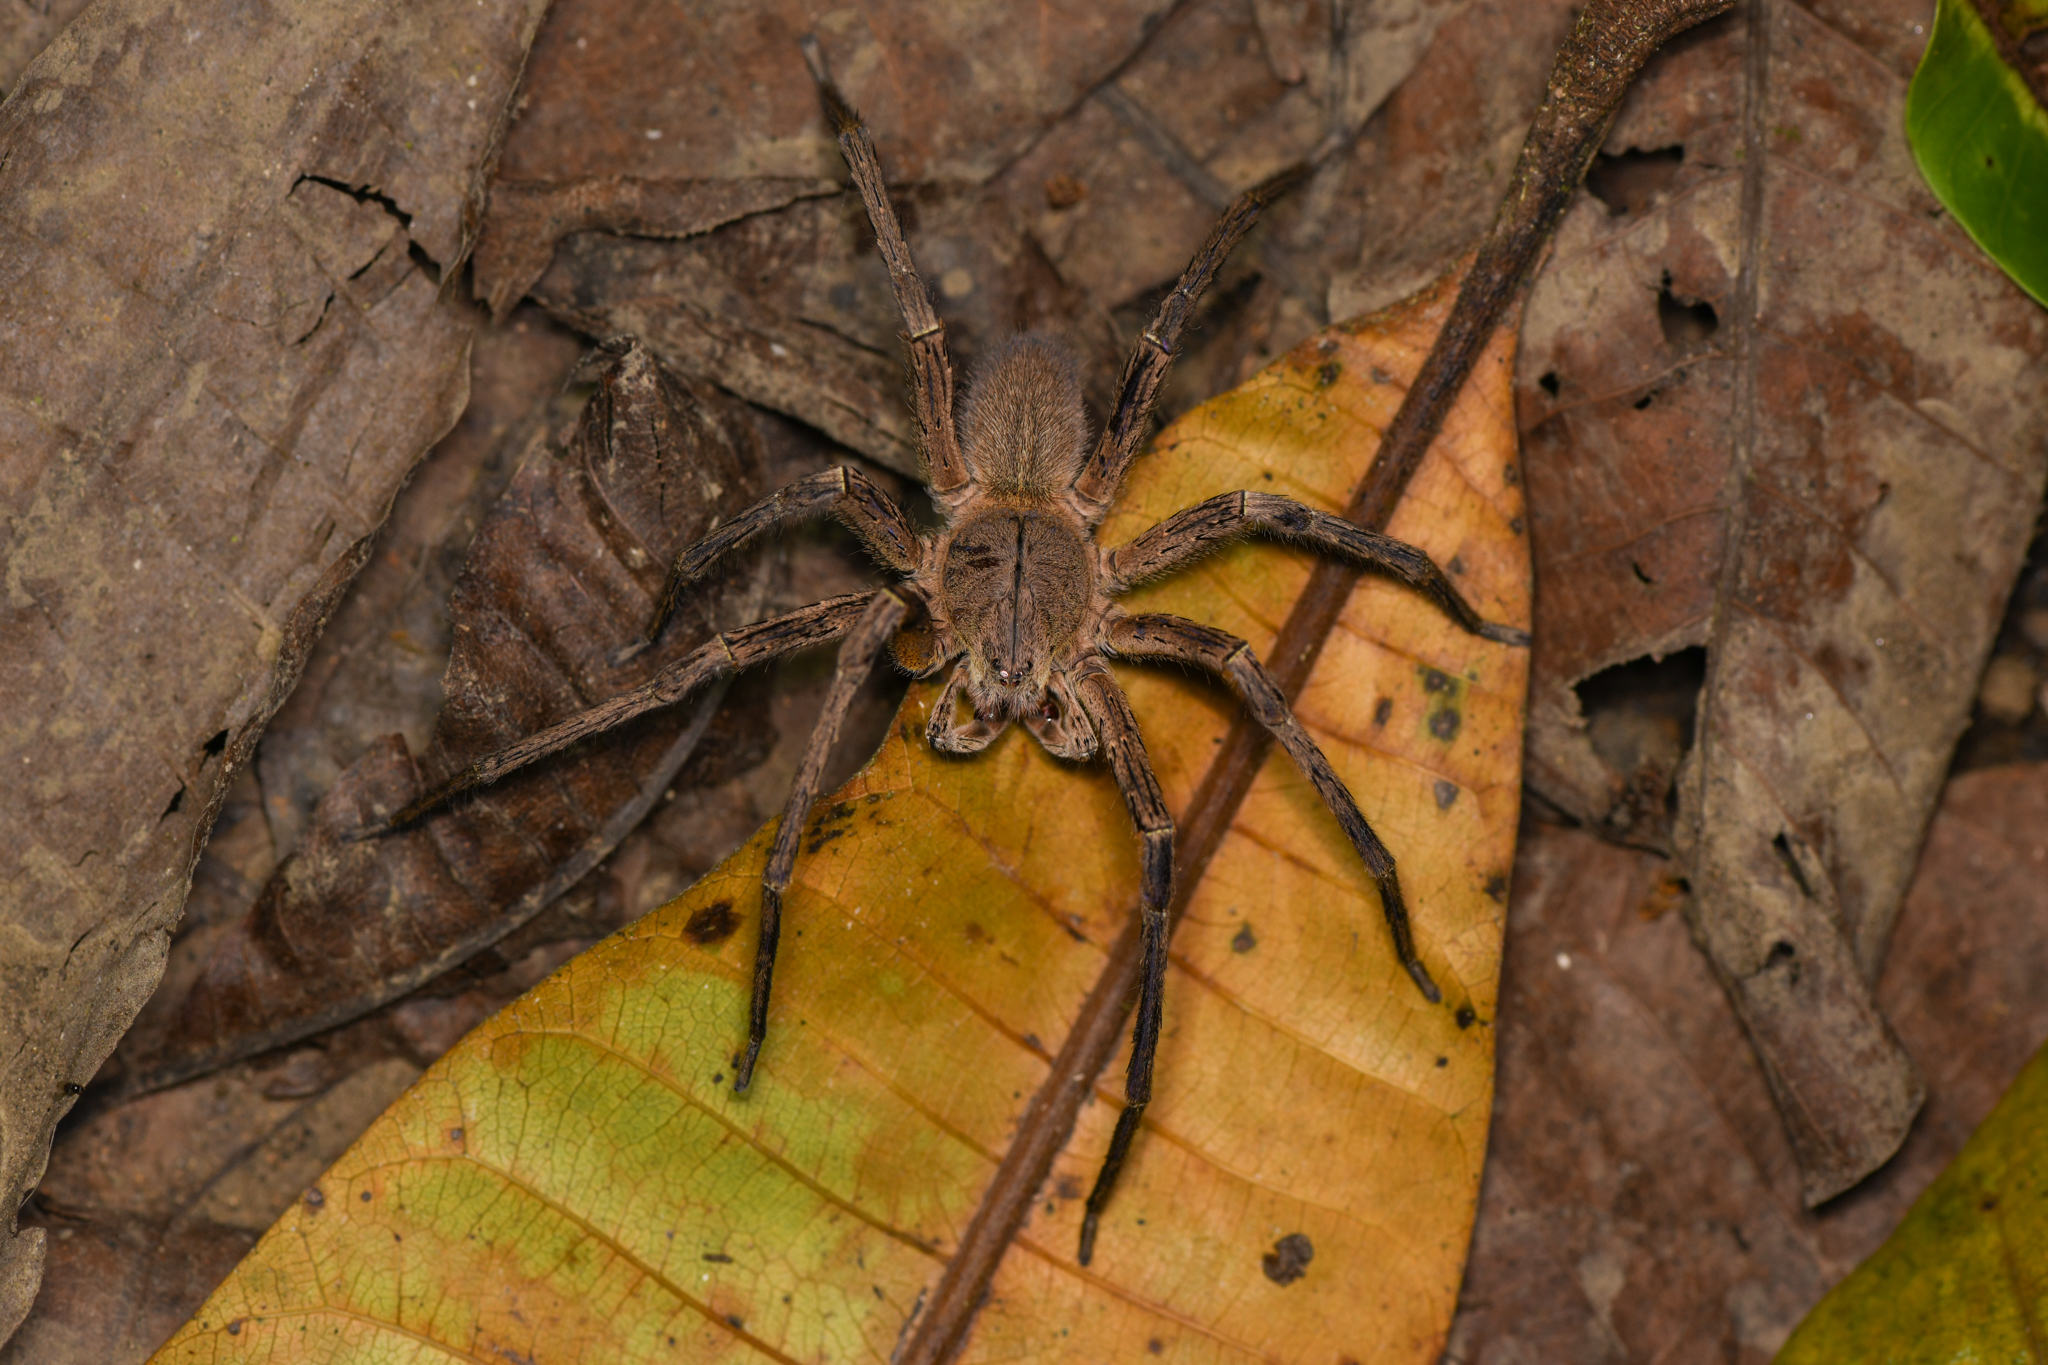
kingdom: Animalia
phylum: Arthropoda
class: Arachnida
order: Araneae
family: Ctenidae
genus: Phoneutria
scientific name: Phoneutria depilata
